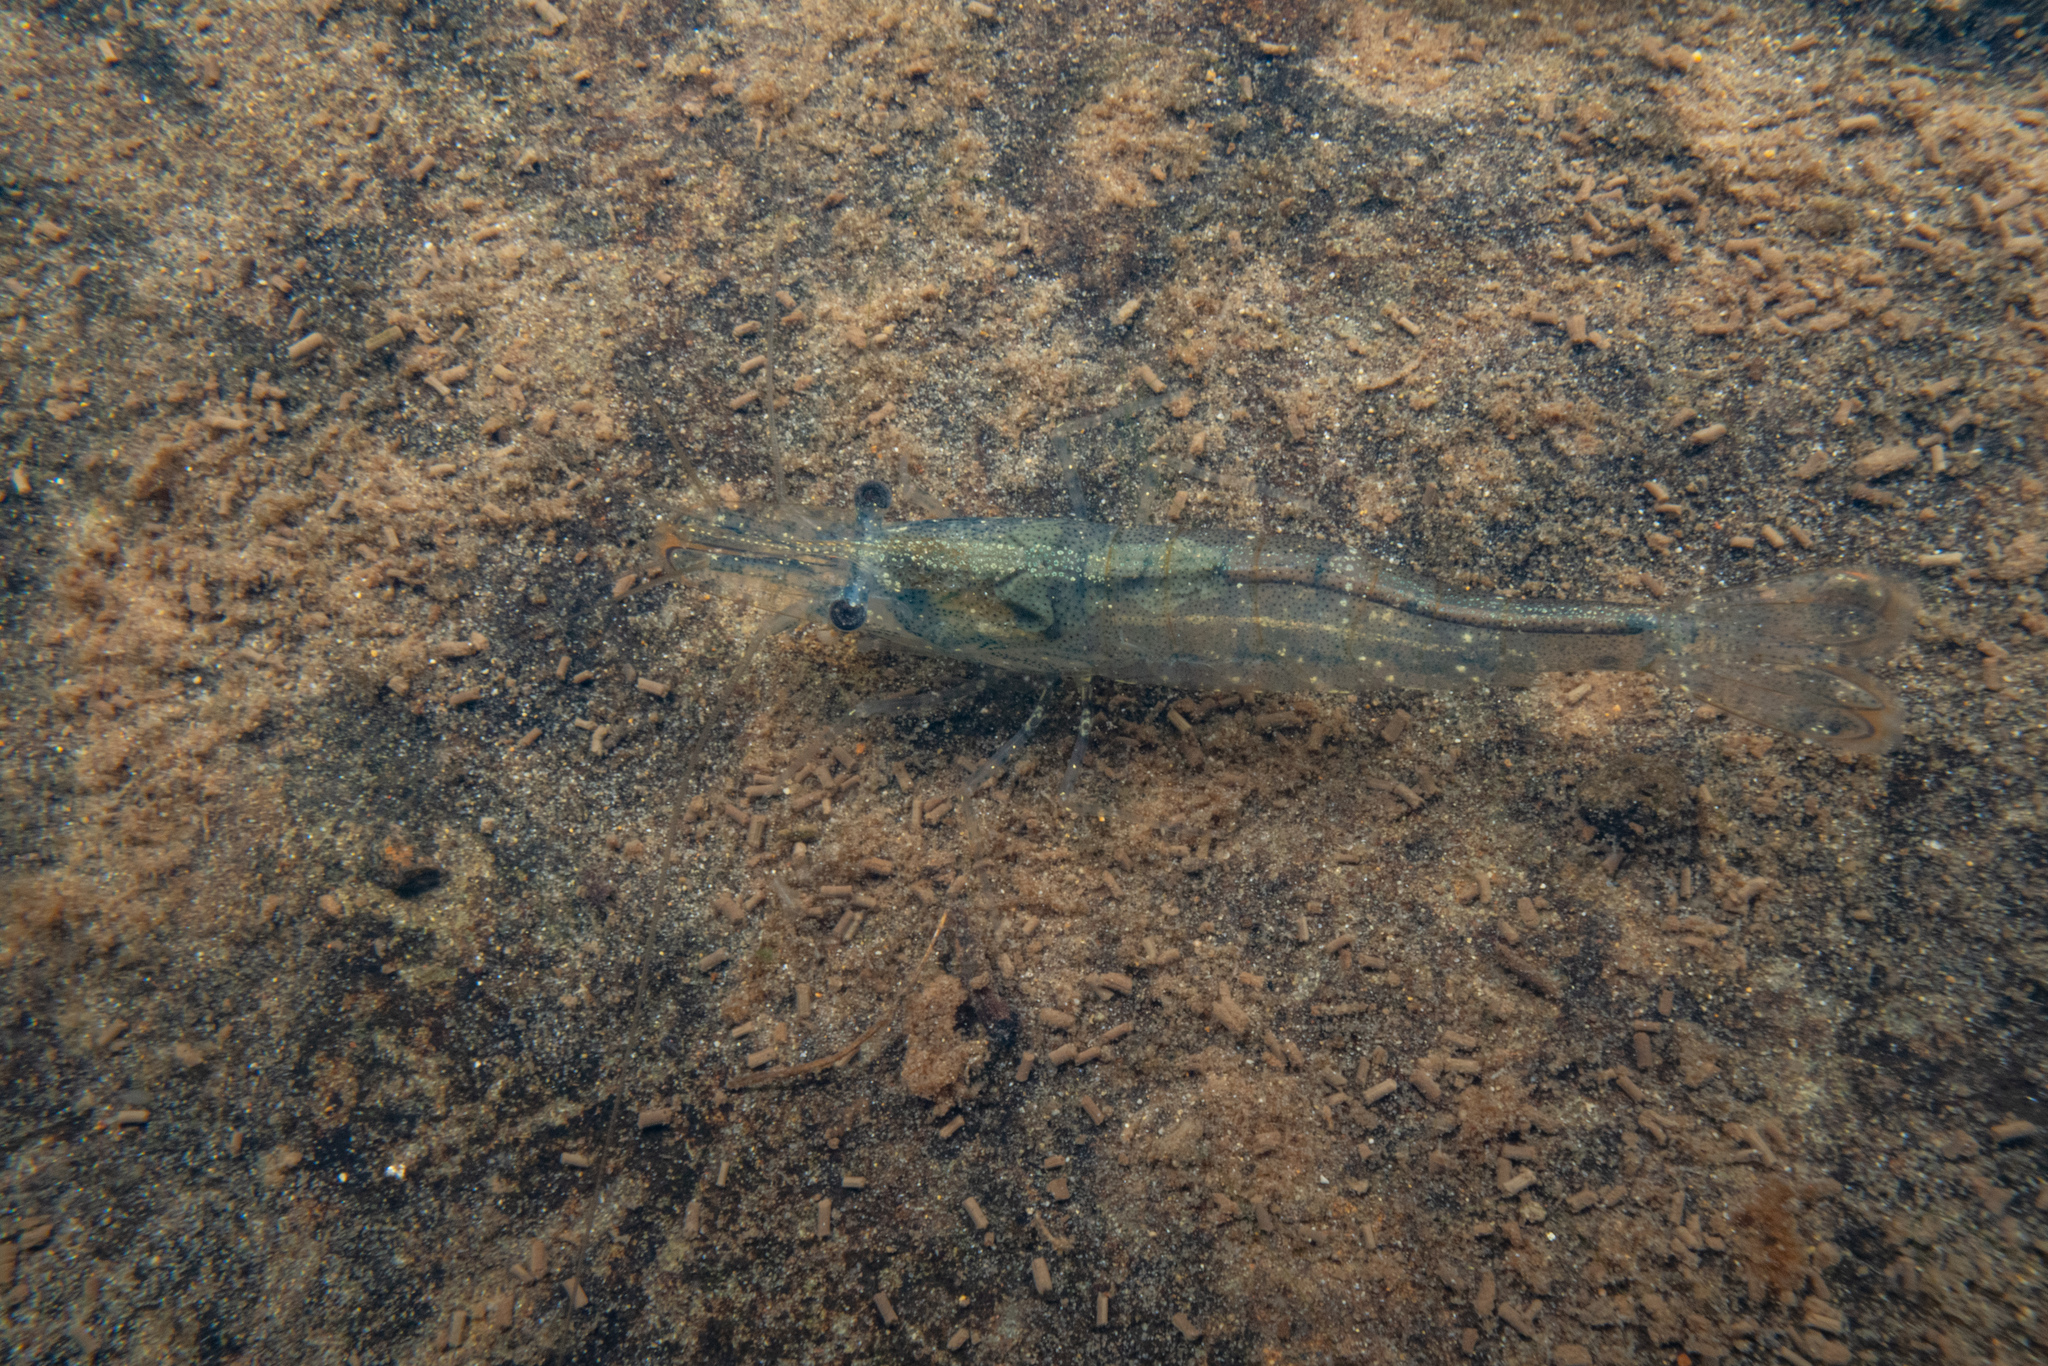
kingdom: Animalia
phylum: Arthropoda
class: Malacostraca
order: Decapoda
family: Atyidae
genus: Paratya
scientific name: Paratya curvirostris
